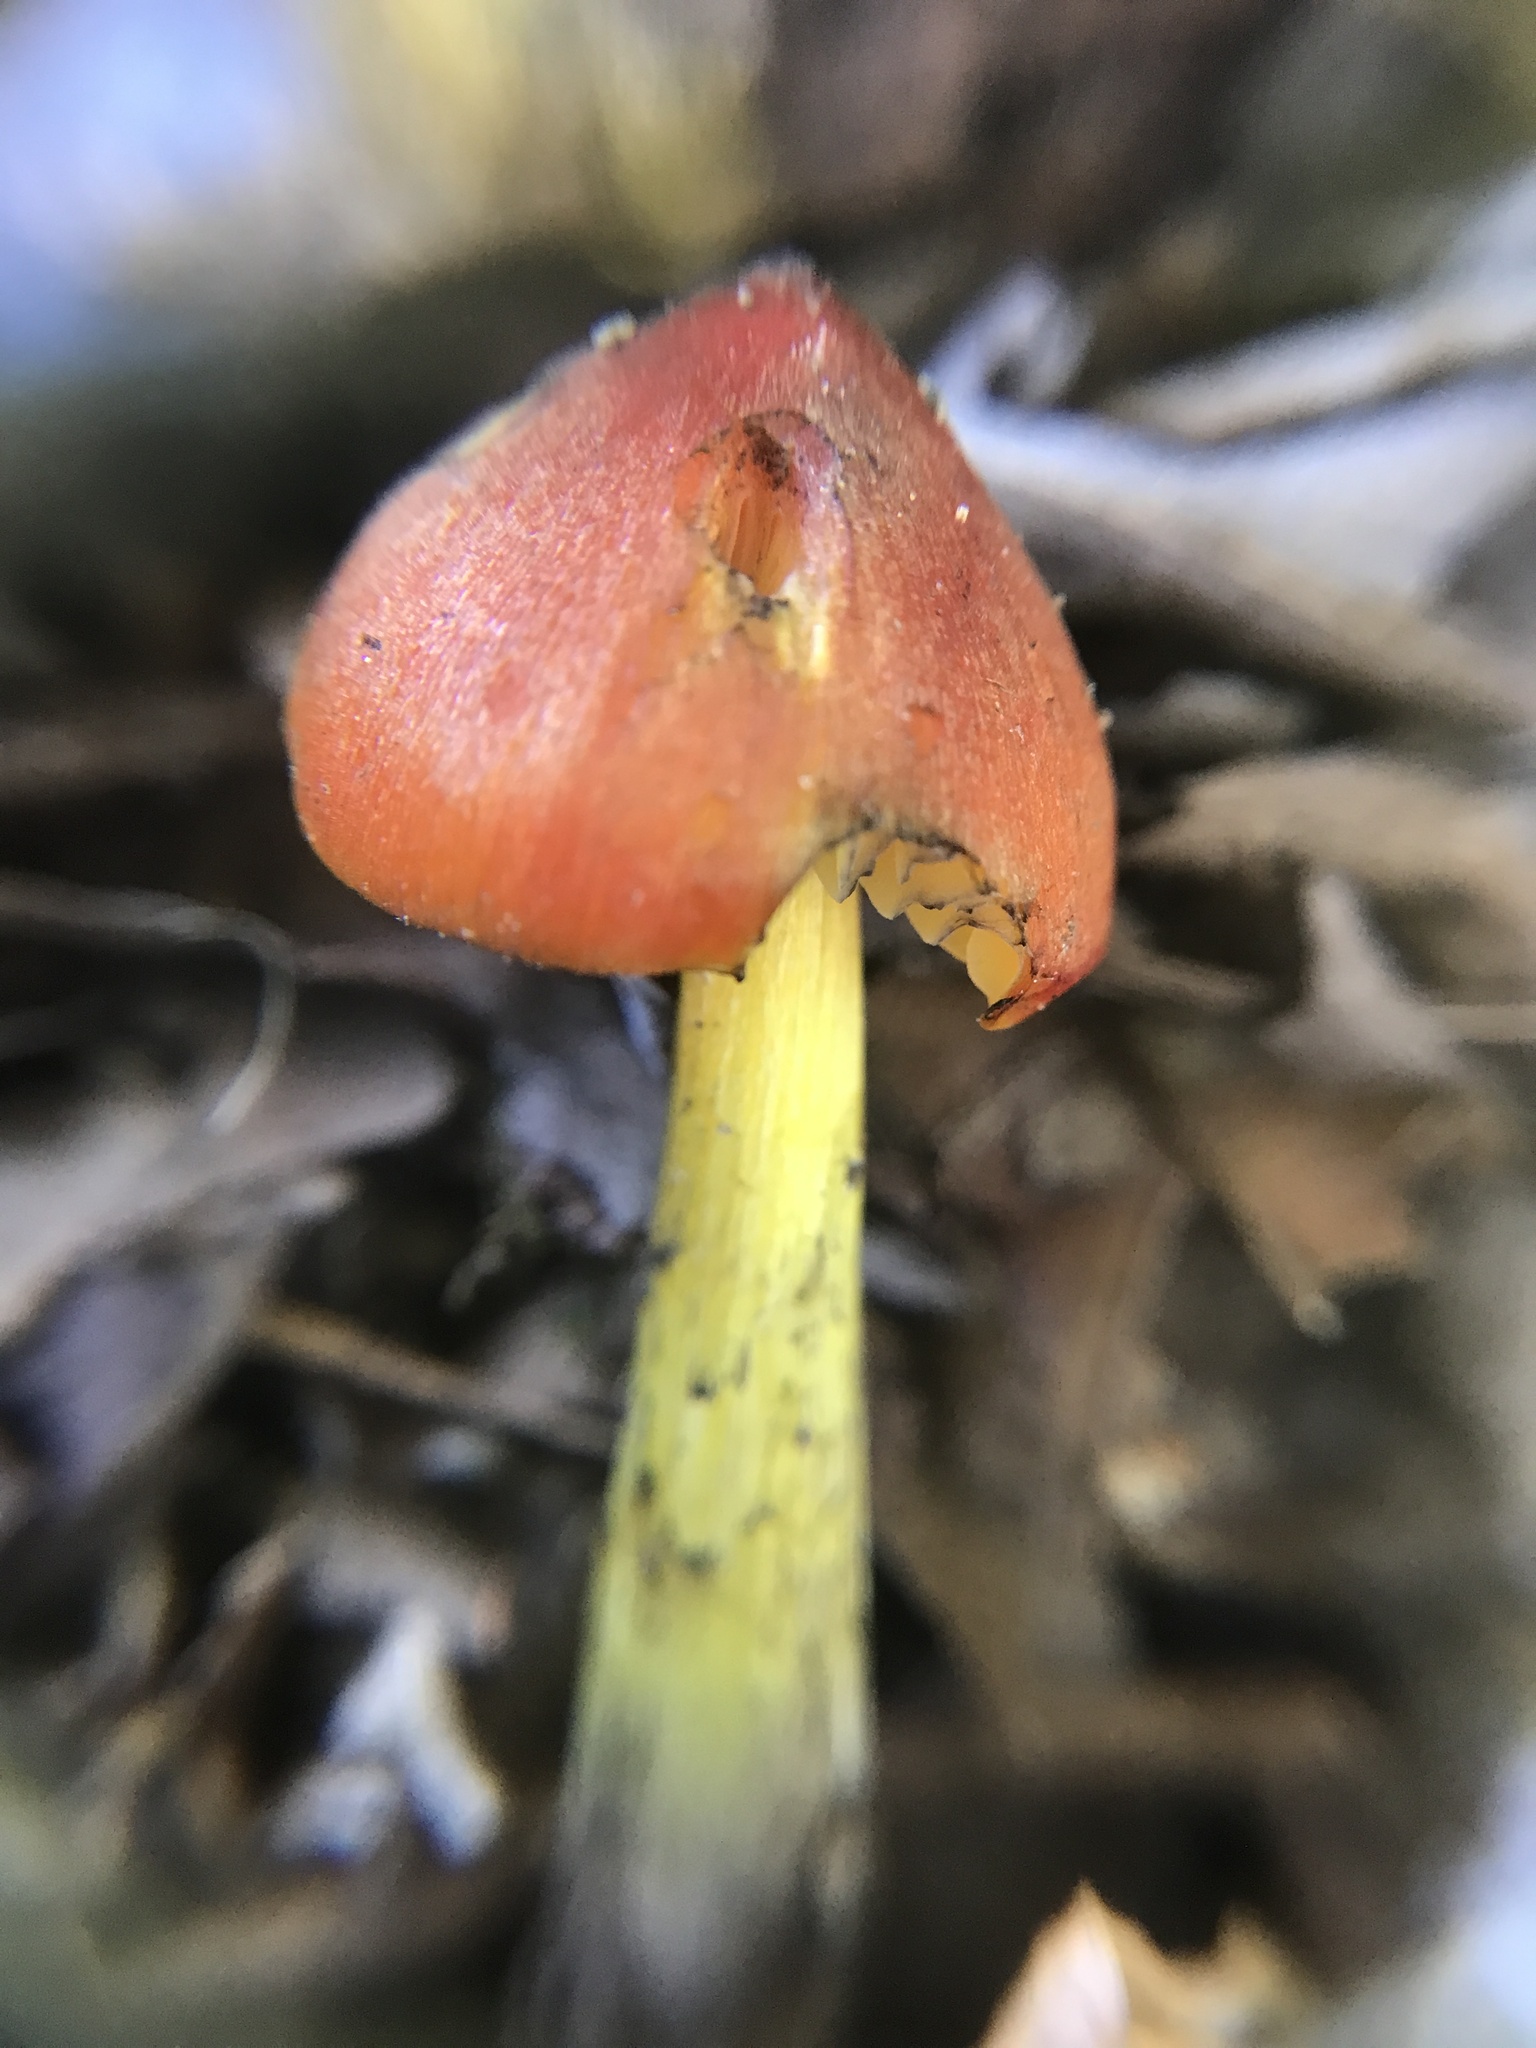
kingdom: Fungi
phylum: Basidiomycota
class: Agaricomycetes
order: Agaricales
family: Hygrophoraceae
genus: Hygrocybe
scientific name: Hygrocybe conica
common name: Blackening wax-cap
